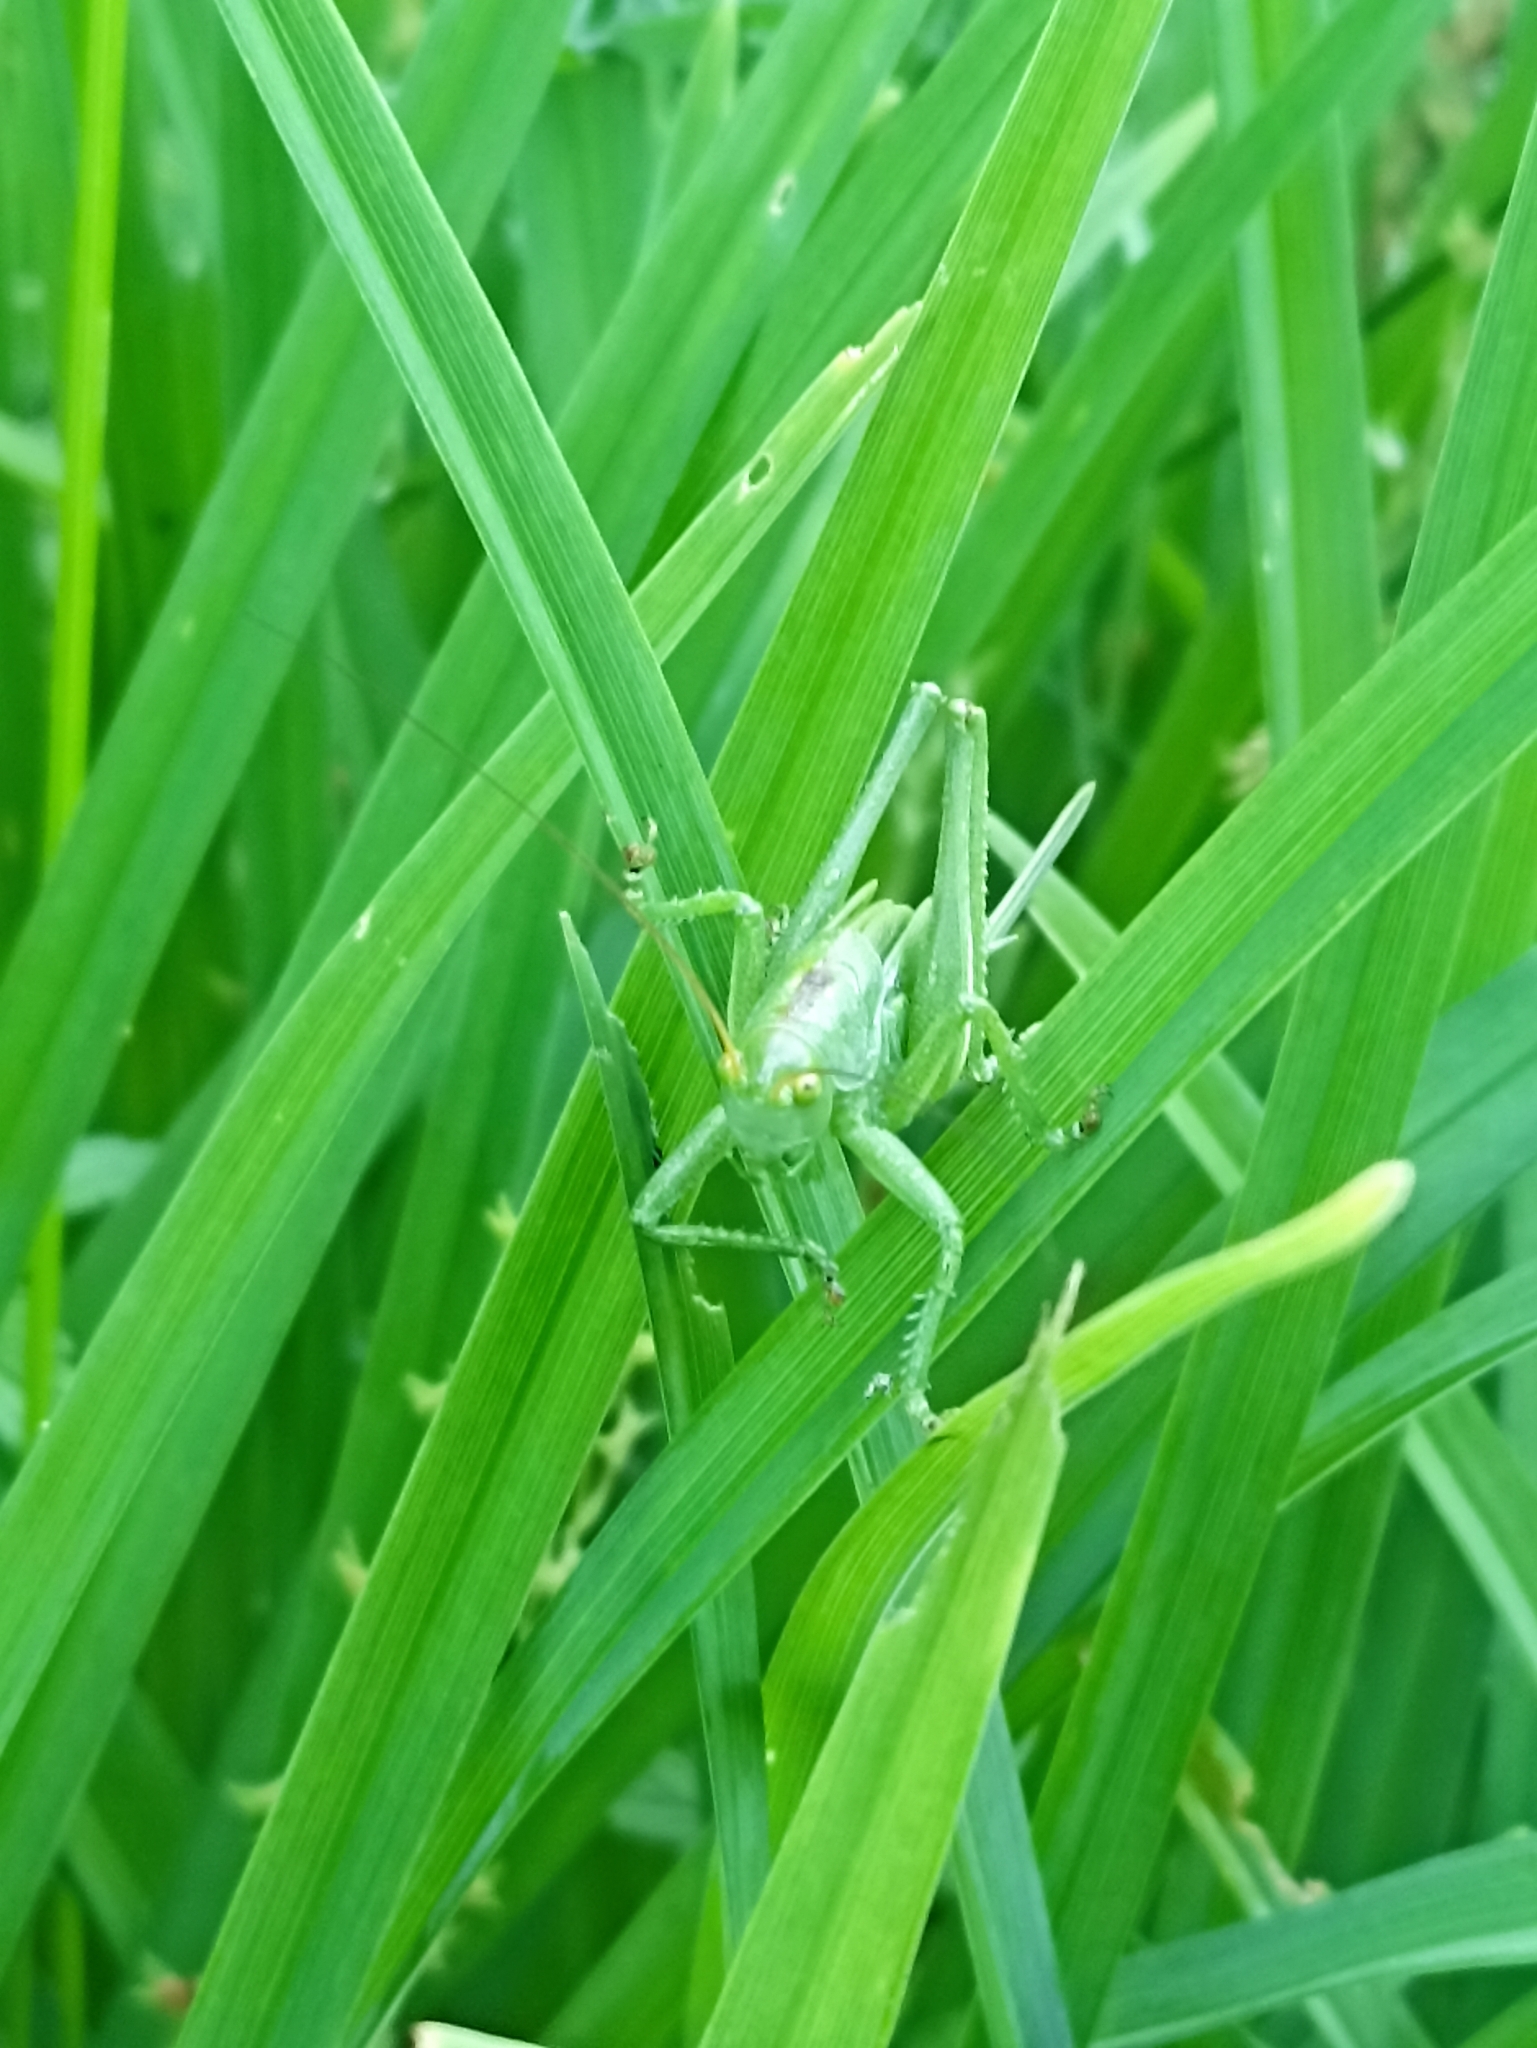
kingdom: Animalia
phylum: Arthropoda
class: Insecta
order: Orthoptera
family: Tettigoniidae
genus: Tettigonia
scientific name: Tettigonia cantans
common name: Upland green bush-cricket
